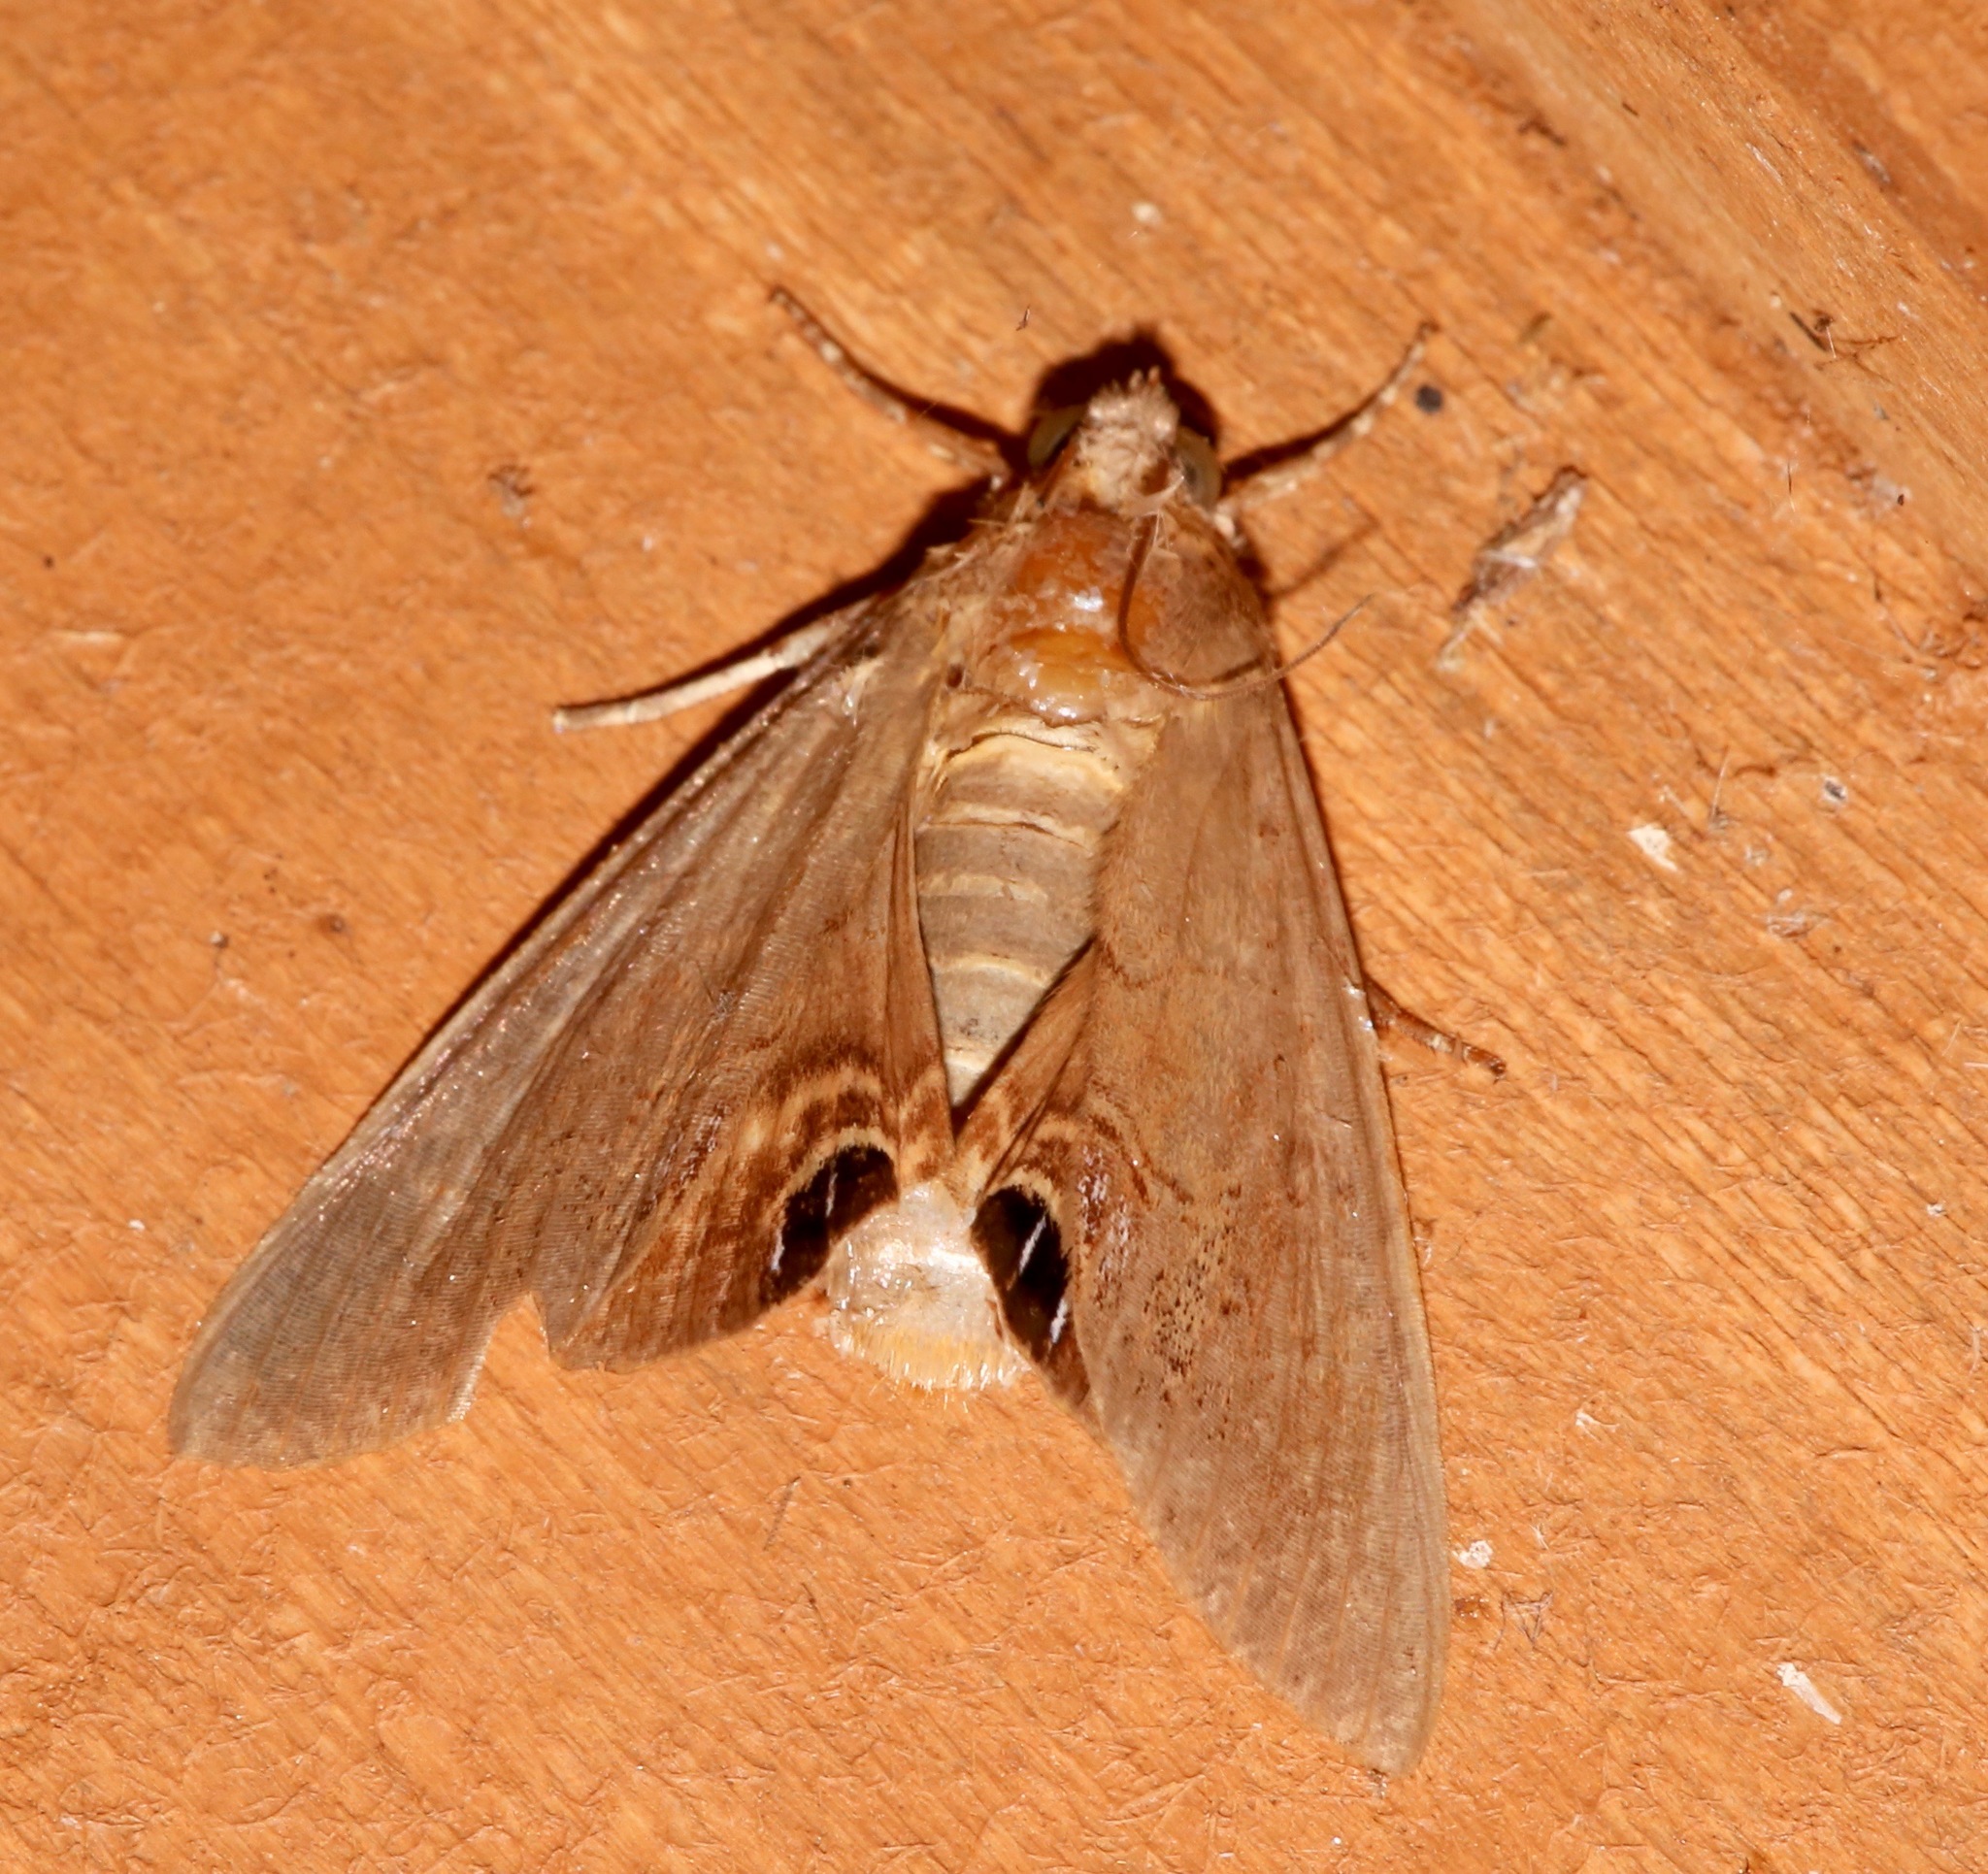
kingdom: Animalia
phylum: Arthropoda
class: Insecta
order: Lepidoptera
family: Erebidae
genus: Litoprosopus
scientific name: Litoprosopus futilis
